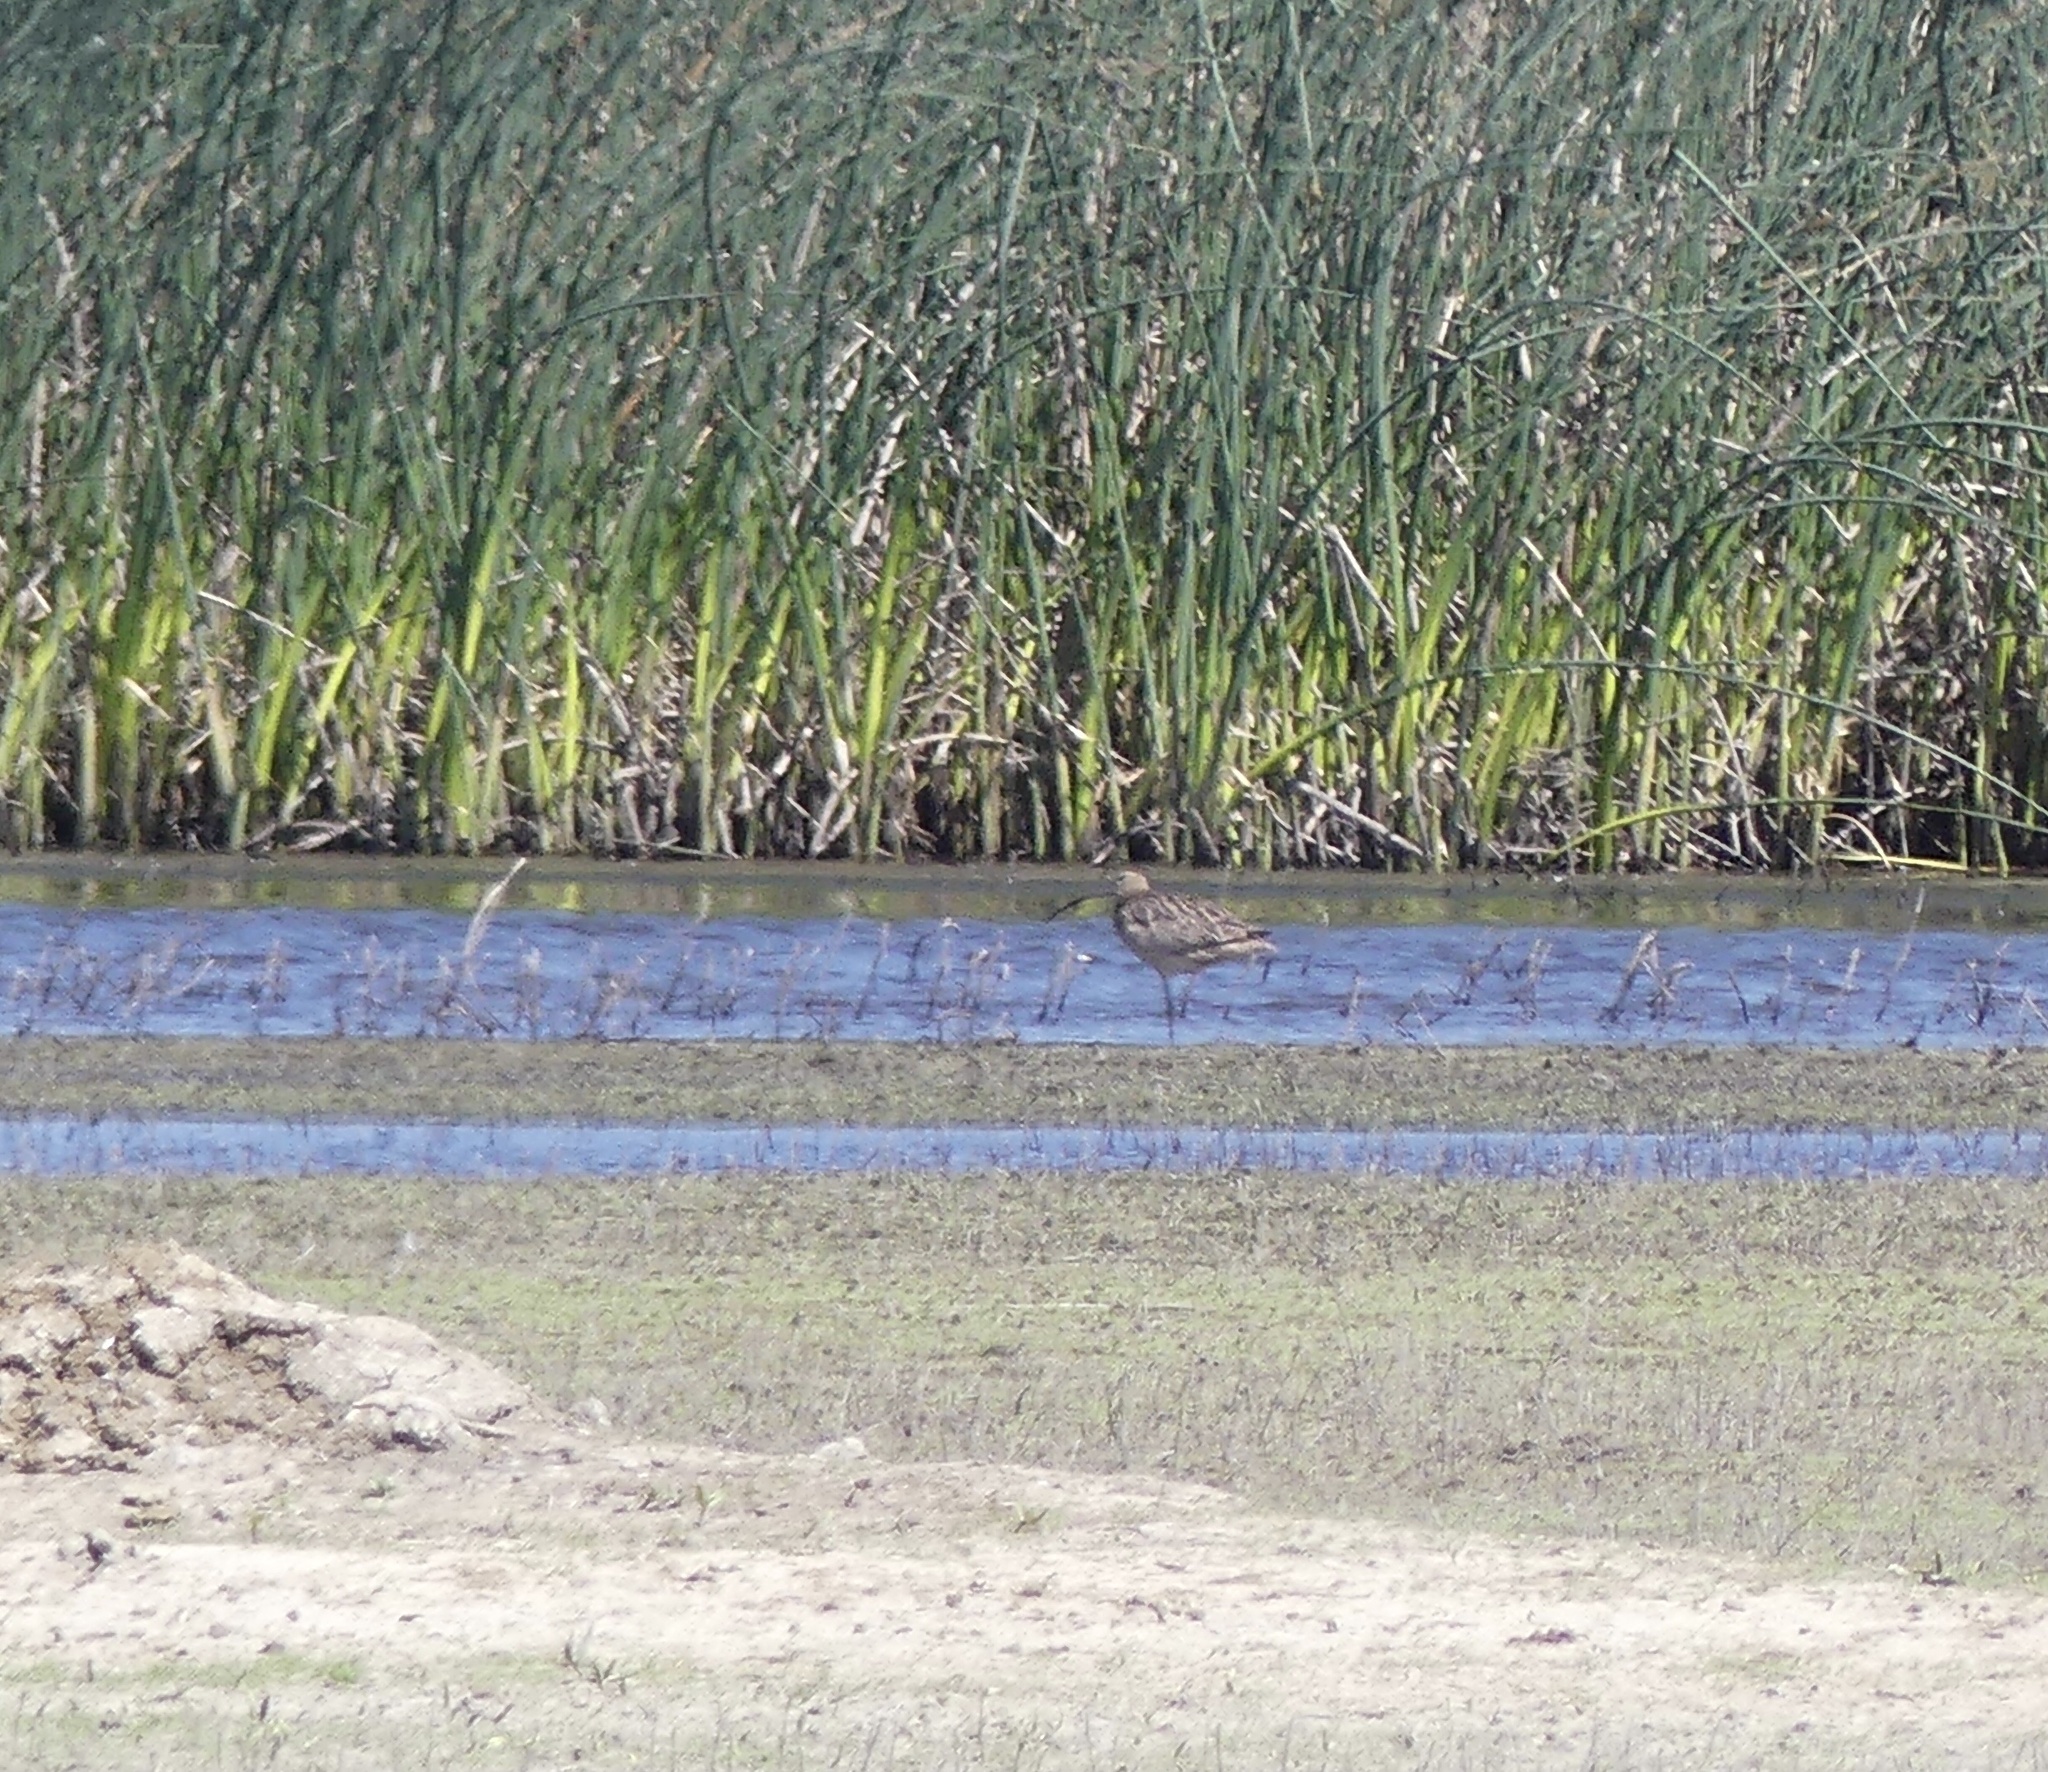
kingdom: Animalia
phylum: Chordata
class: Aves
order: Charadriiformes
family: Scolopacidae
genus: Numenius
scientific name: Numenius americanus
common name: Long-billed curlew
